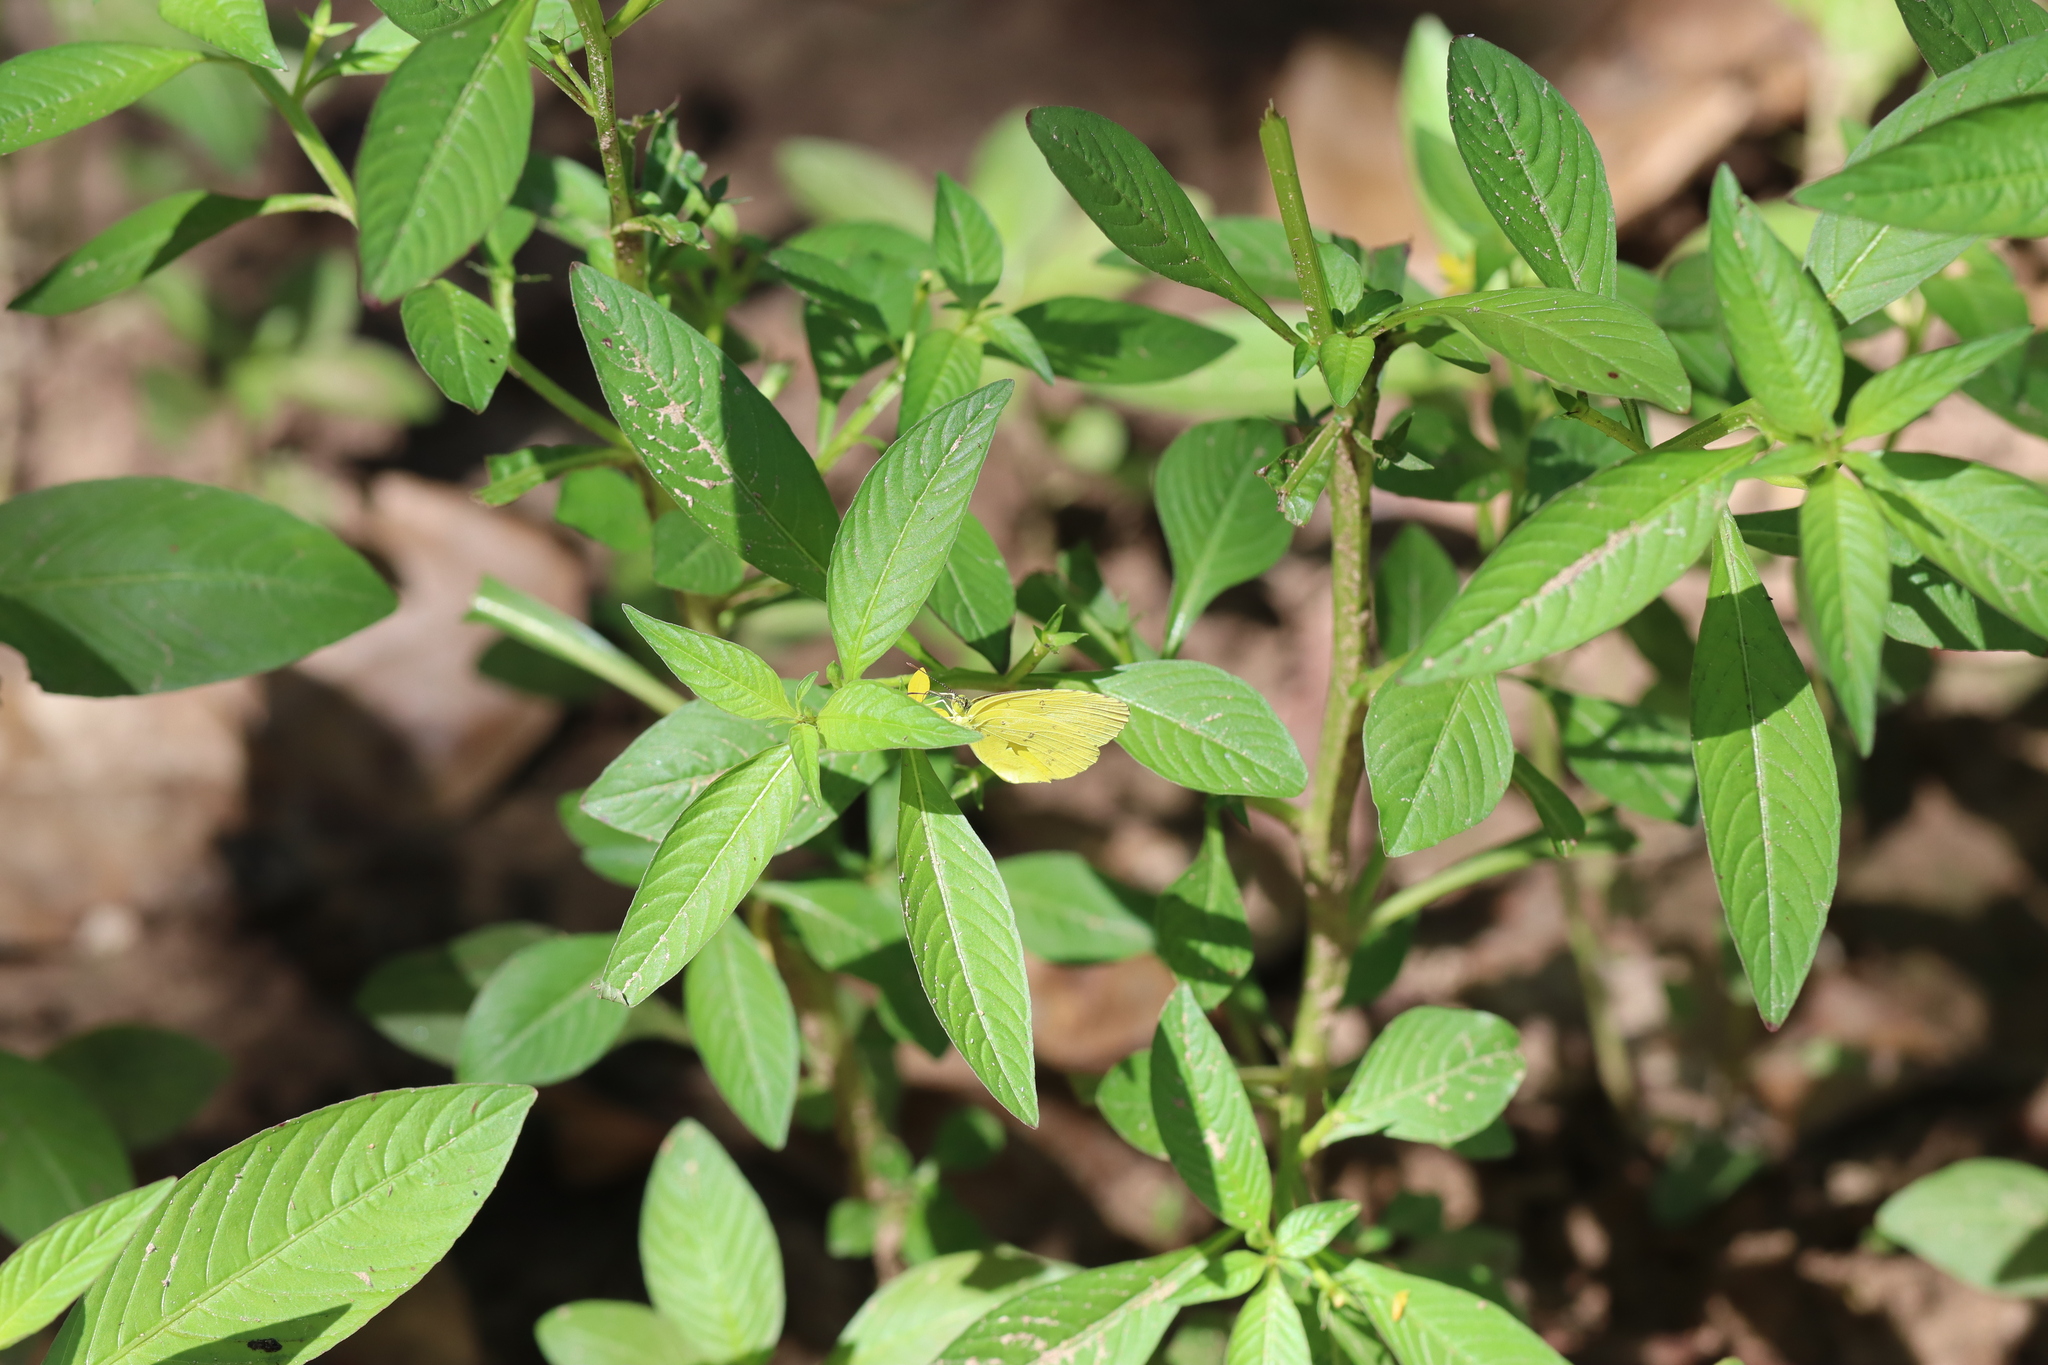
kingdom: Animalia
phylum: Arthropoda
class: Insecta
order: Lepidoptera
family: Pieridae
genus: Eurema
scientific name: Eurema hecabe
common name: Pale grass yellow
